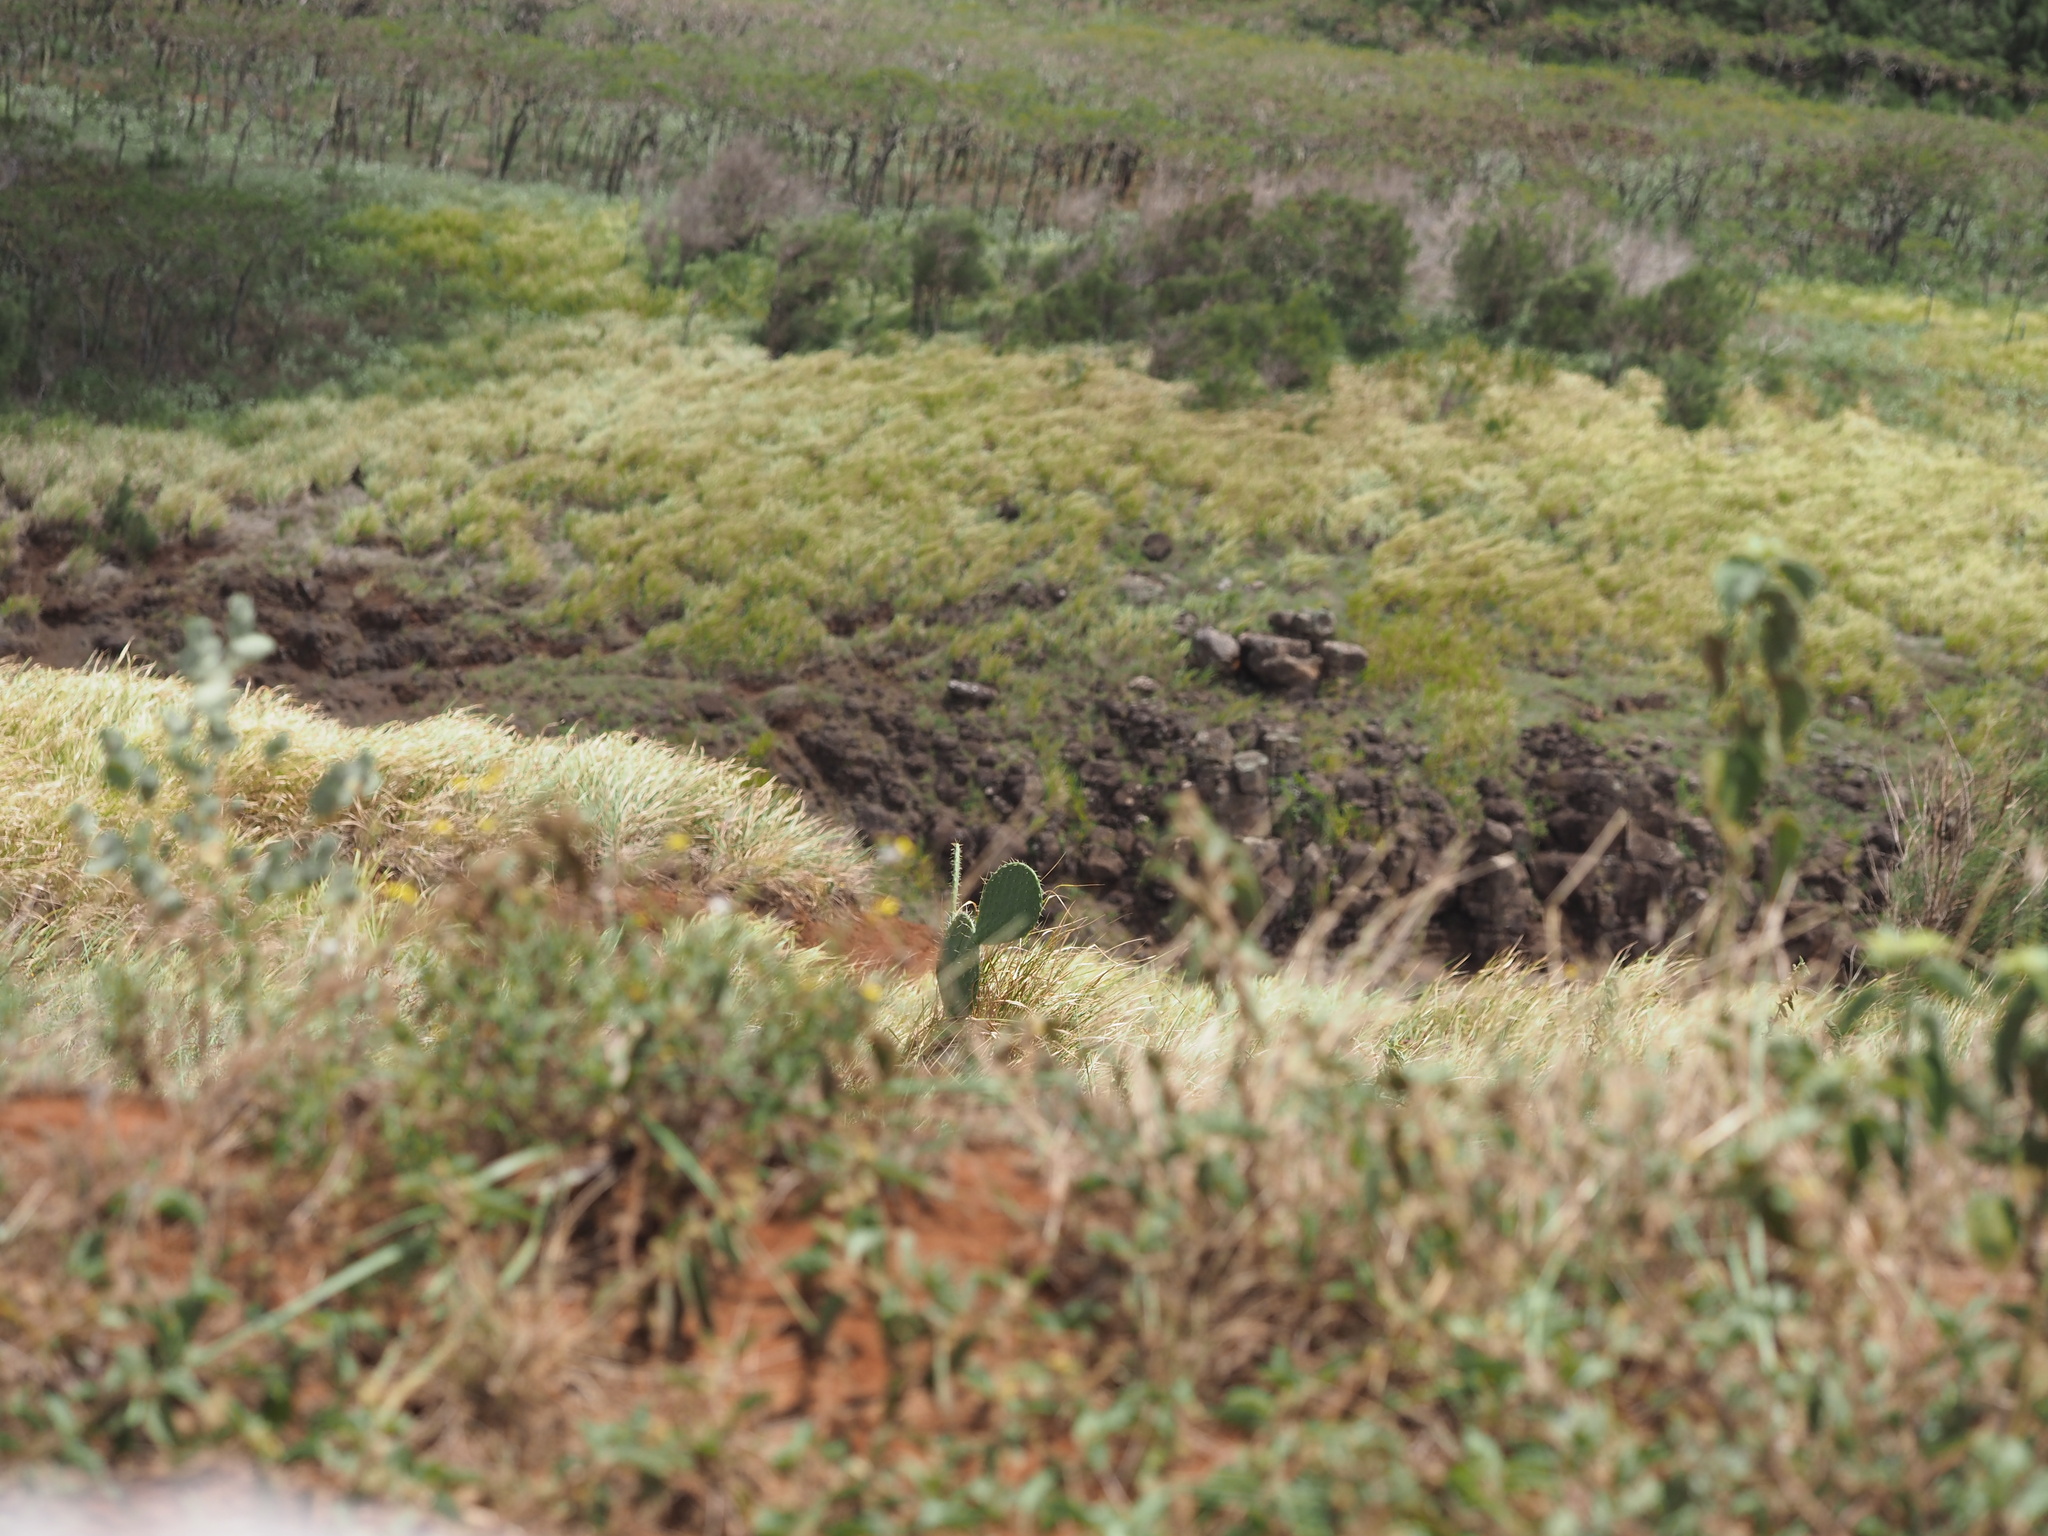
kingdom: Plantae
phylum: Tracheophyta
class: Magnoliopsida
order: Caryophyllales
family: Cactaceae
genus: Opuntia
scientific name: Opuntia ficus-indica
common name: Barbary fig
